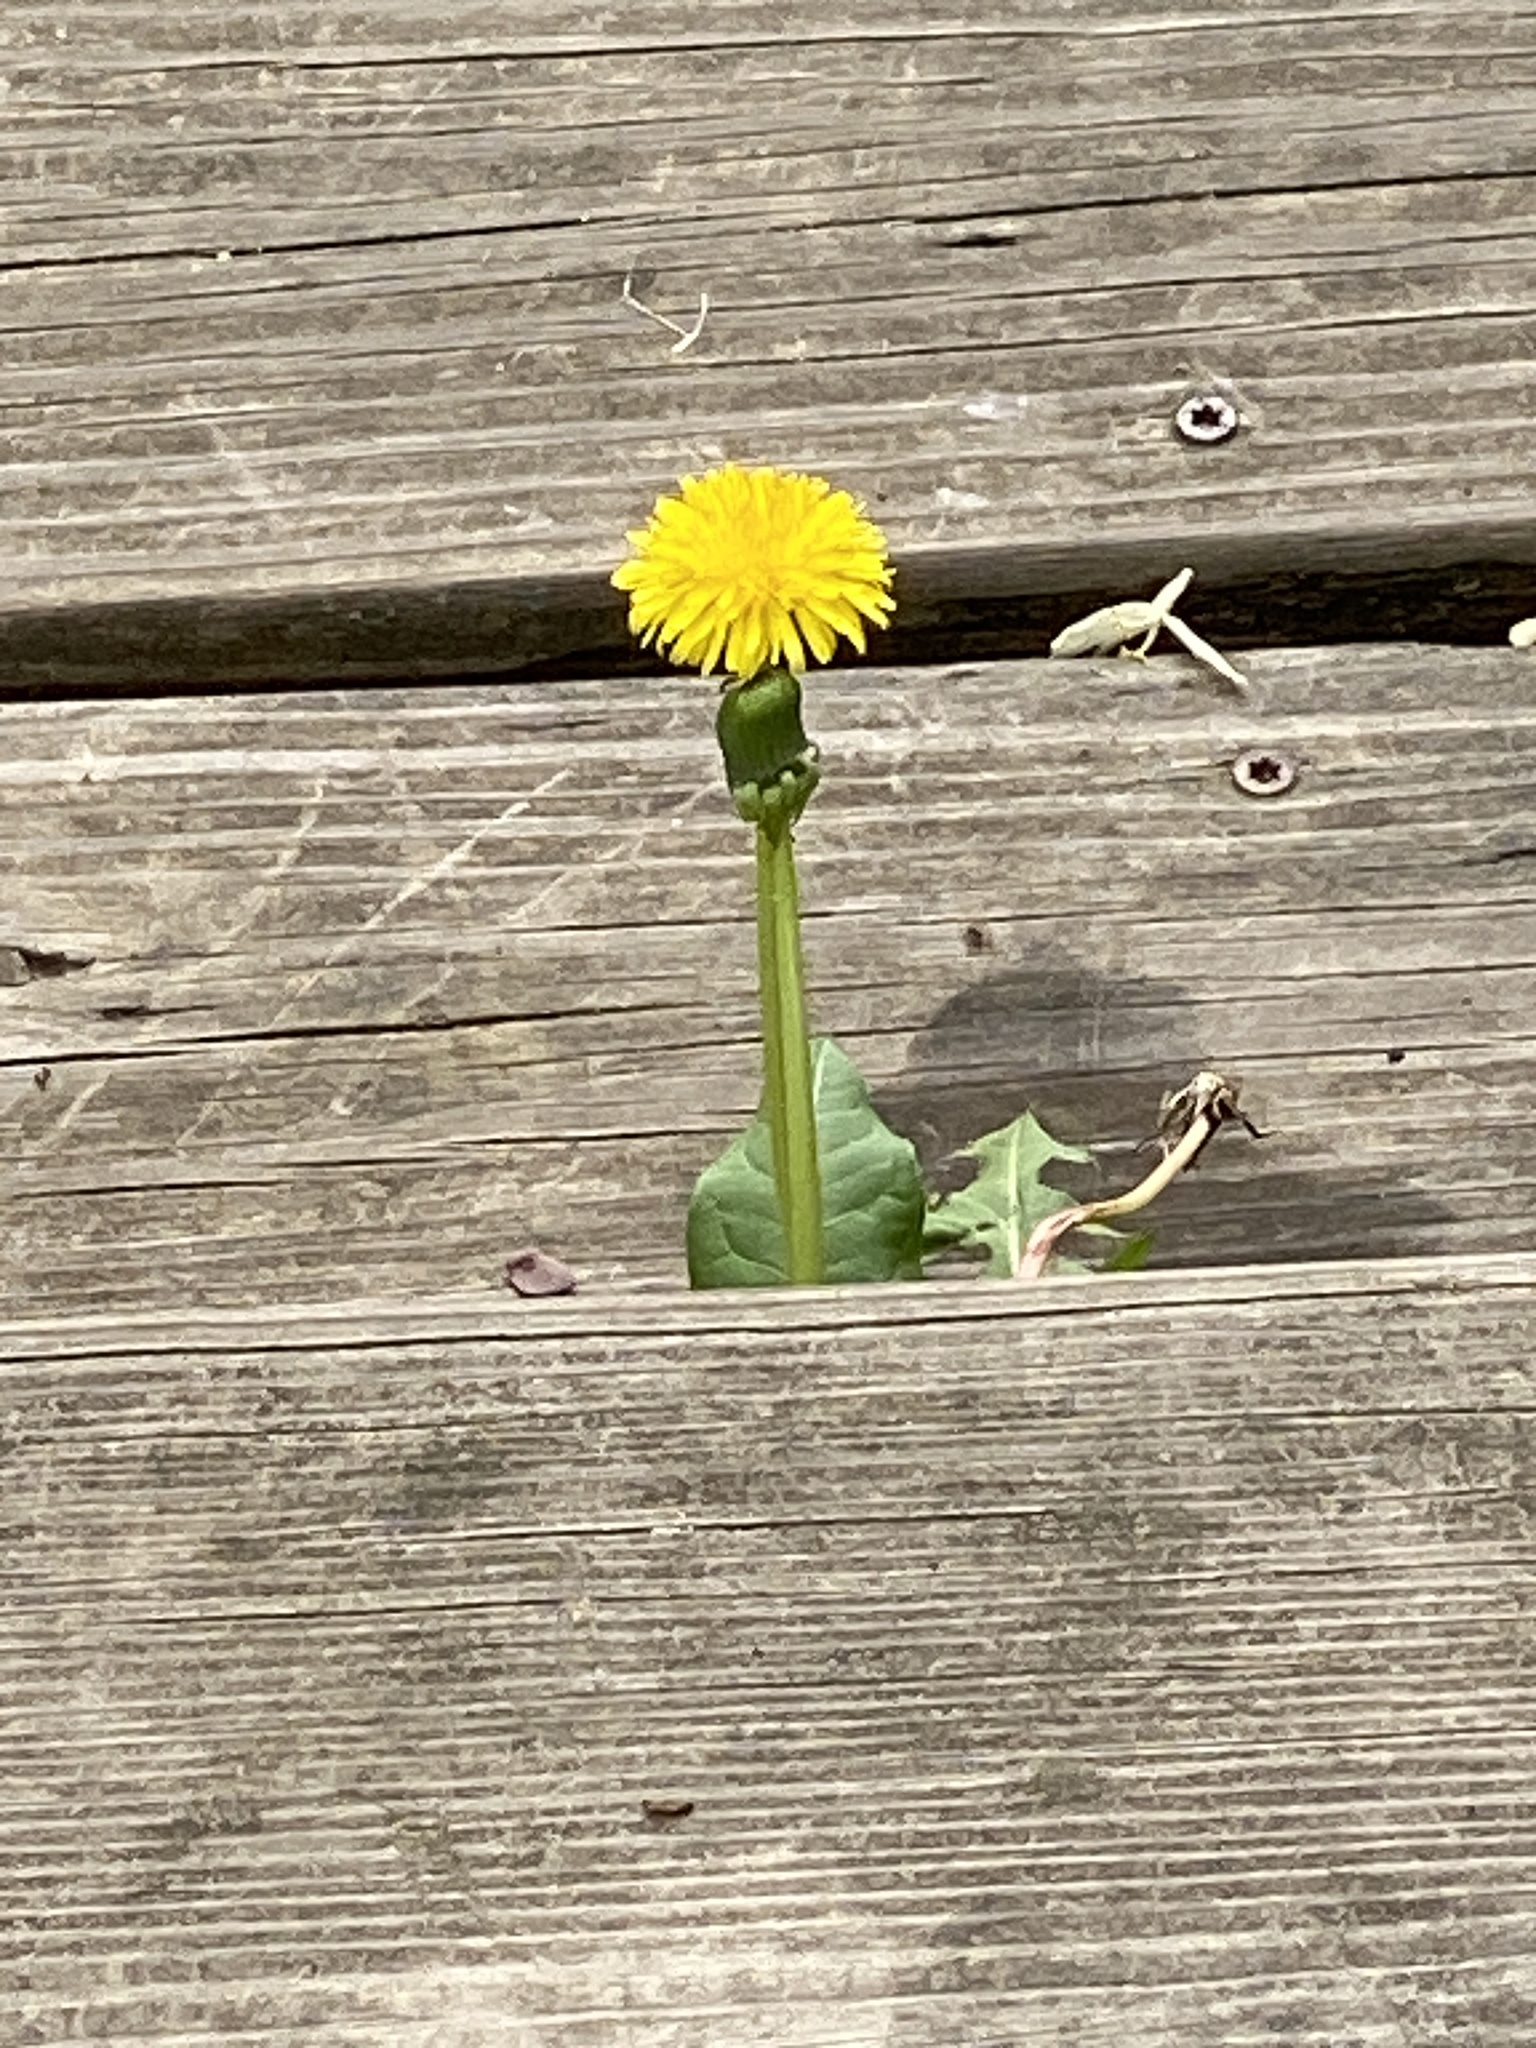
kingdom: Plantae
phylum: Tracheophyta
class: Magnoliopsida
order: Asterales
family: Asteraceae
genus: Taraxacum
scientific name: Taraxacum
